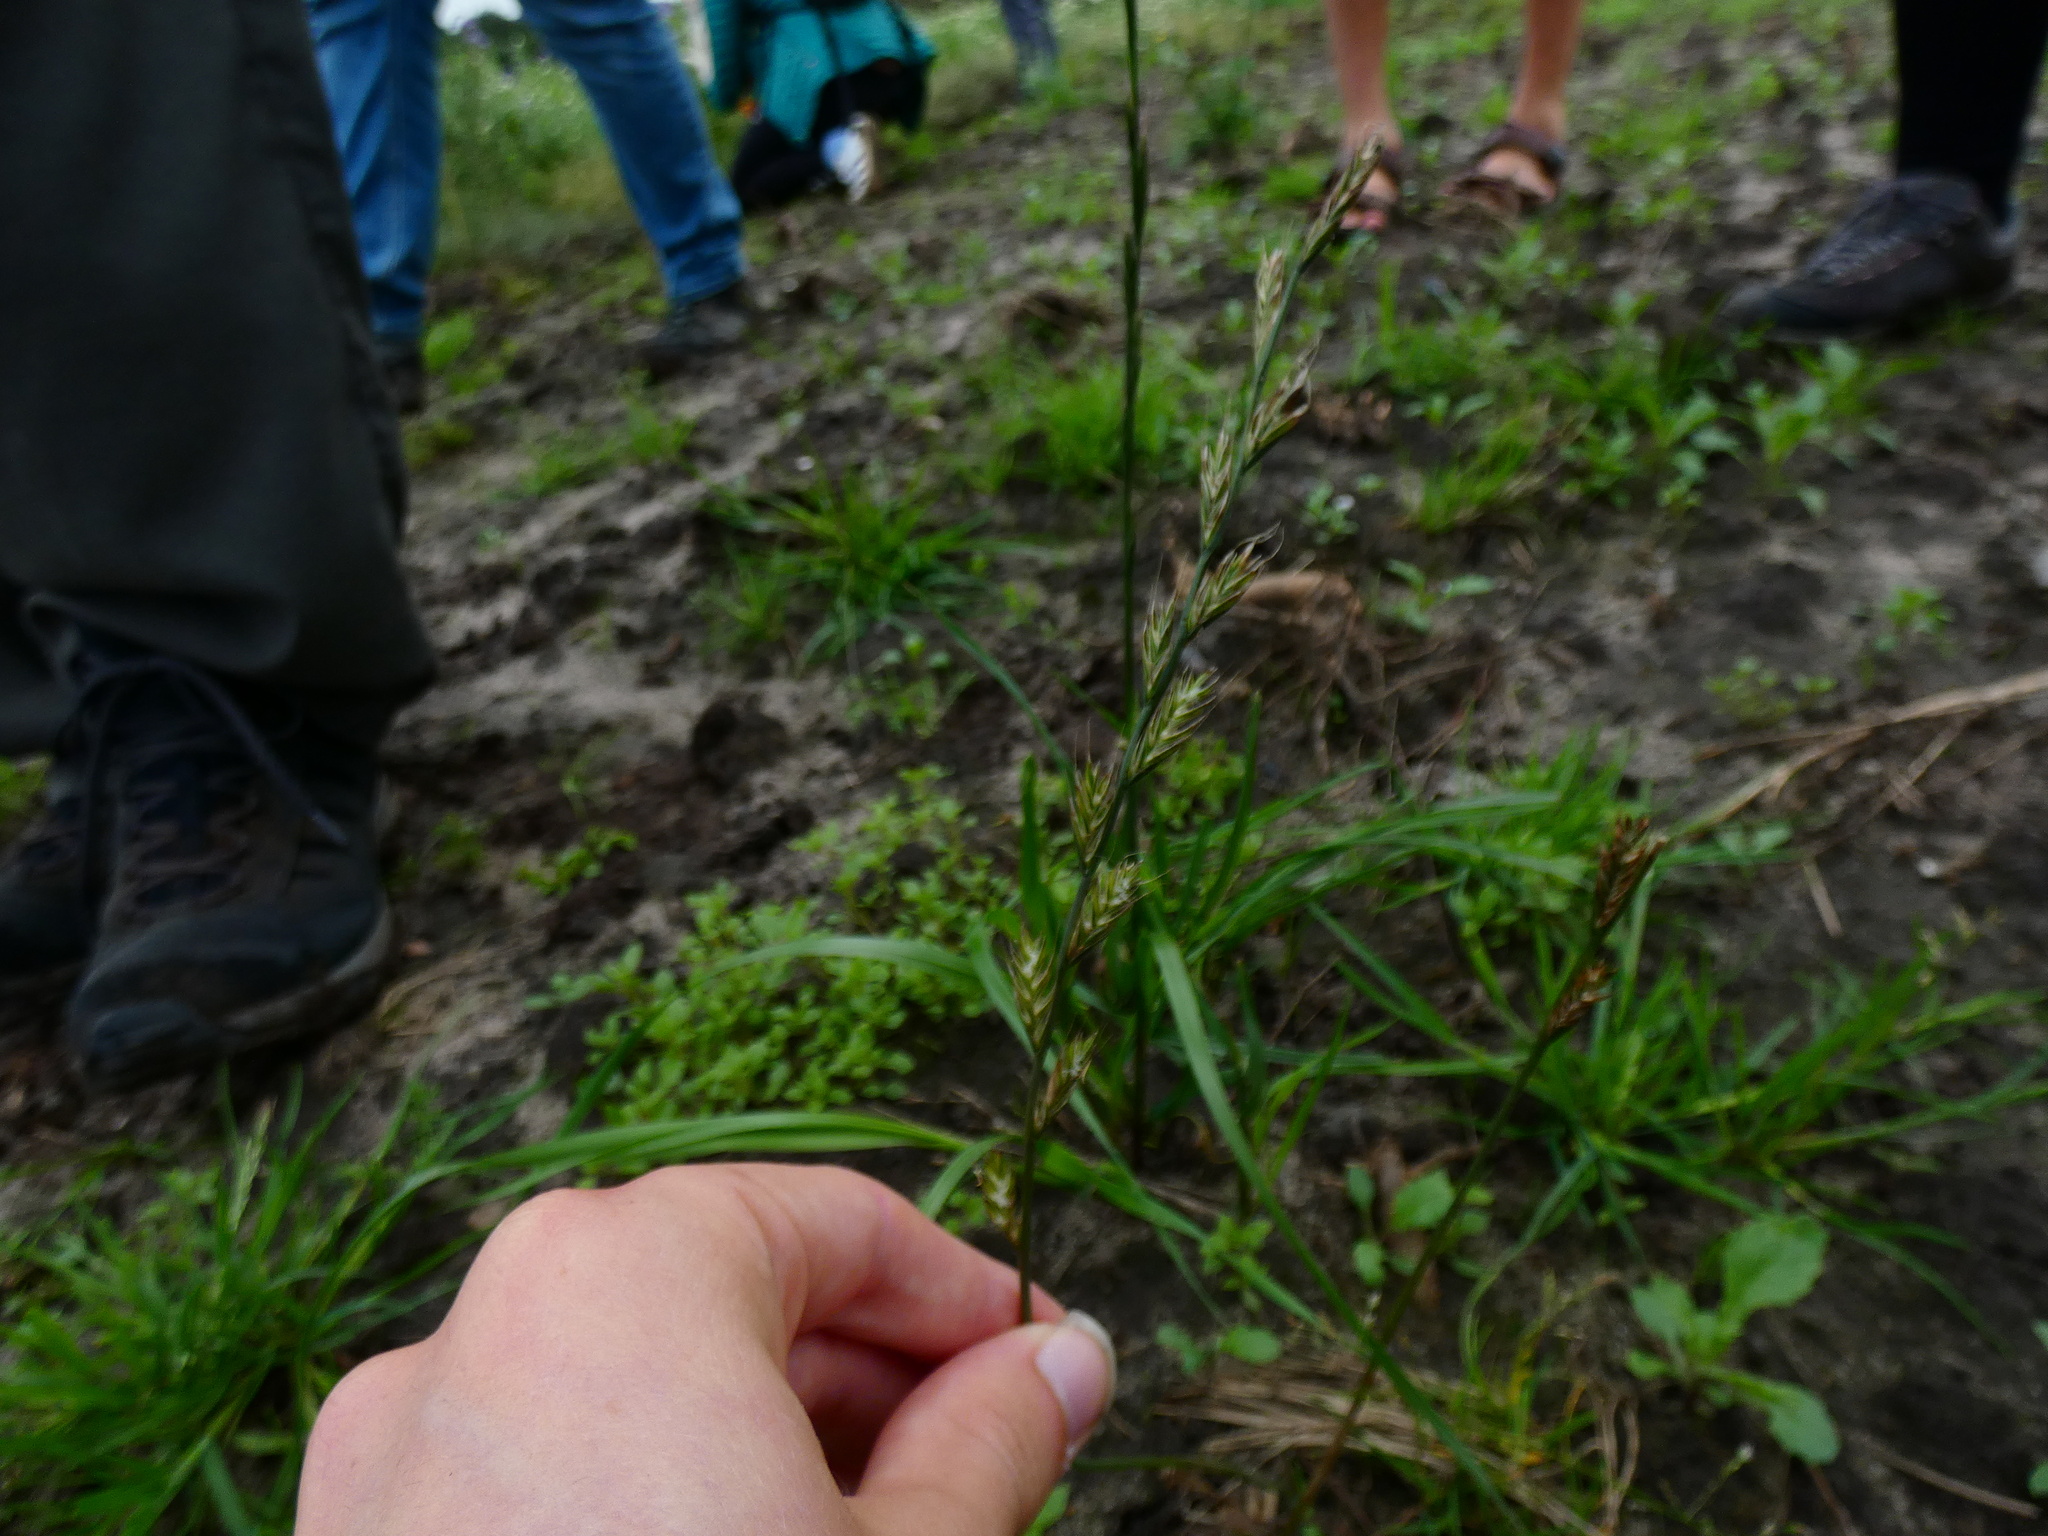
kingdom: Plantae
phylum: Tracheophyta
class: Liliopsida
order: Poales
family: Poaceae
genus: Lolium
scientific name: Lolium multiflorum
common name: Annual ryegrass
